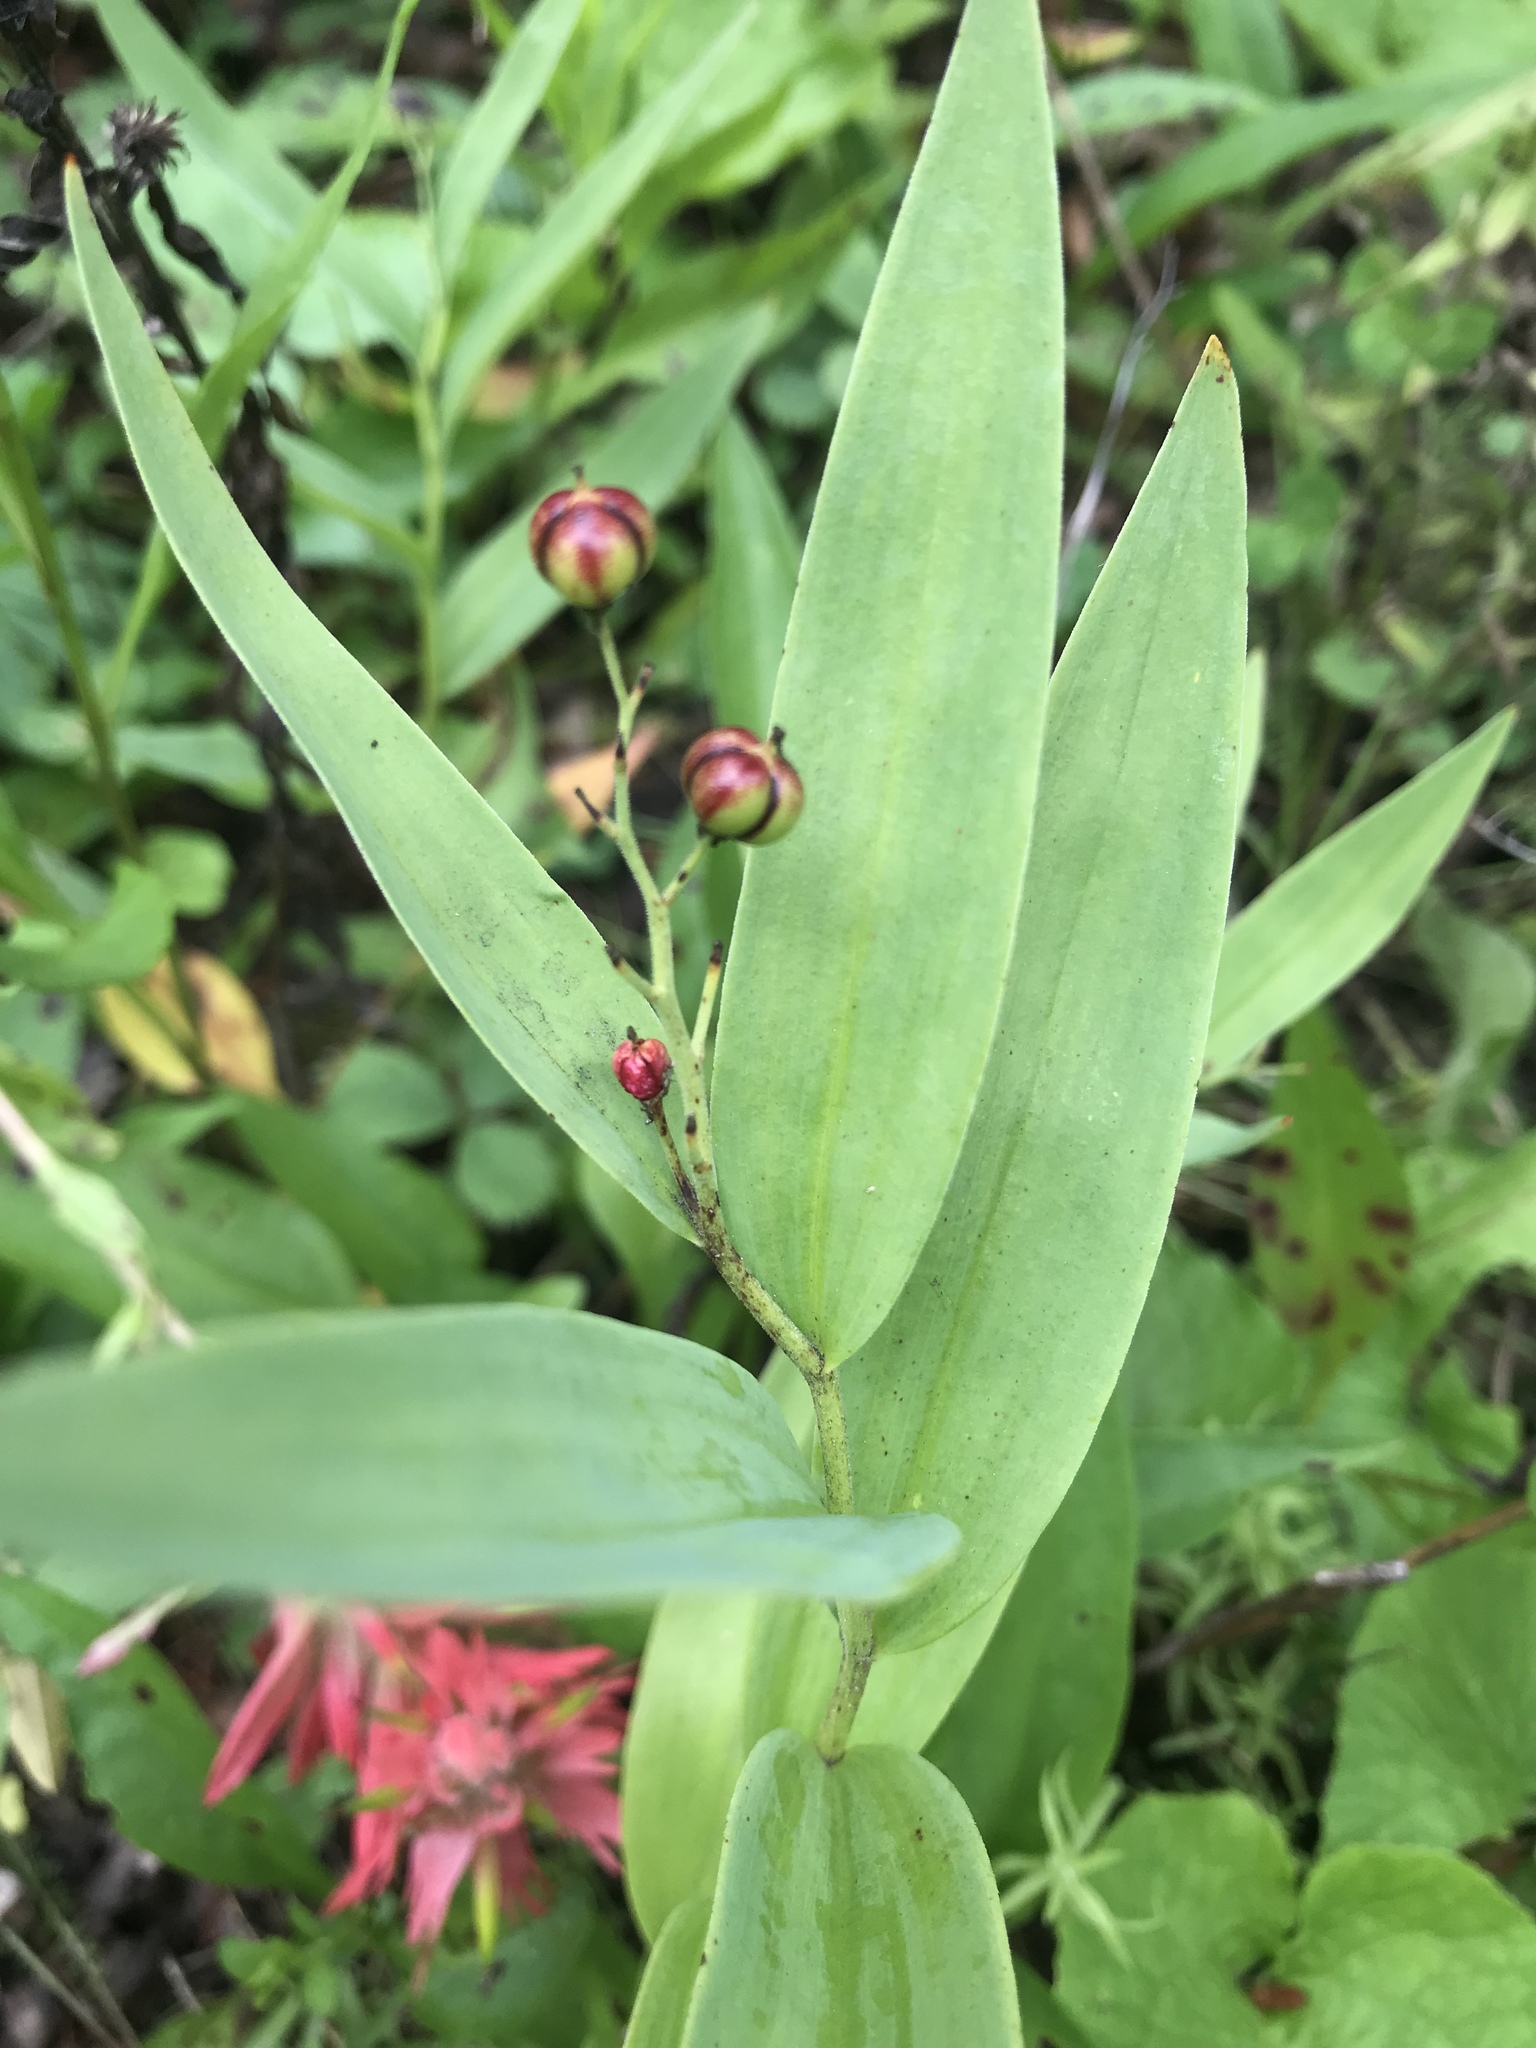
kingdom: Plantae
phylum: Tracheophyta
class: Liliopsida
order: Asparagales
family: Asparagaceae
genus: Maianthemum
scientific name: Maianthemum stellatum
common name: Little false solomon's seal
